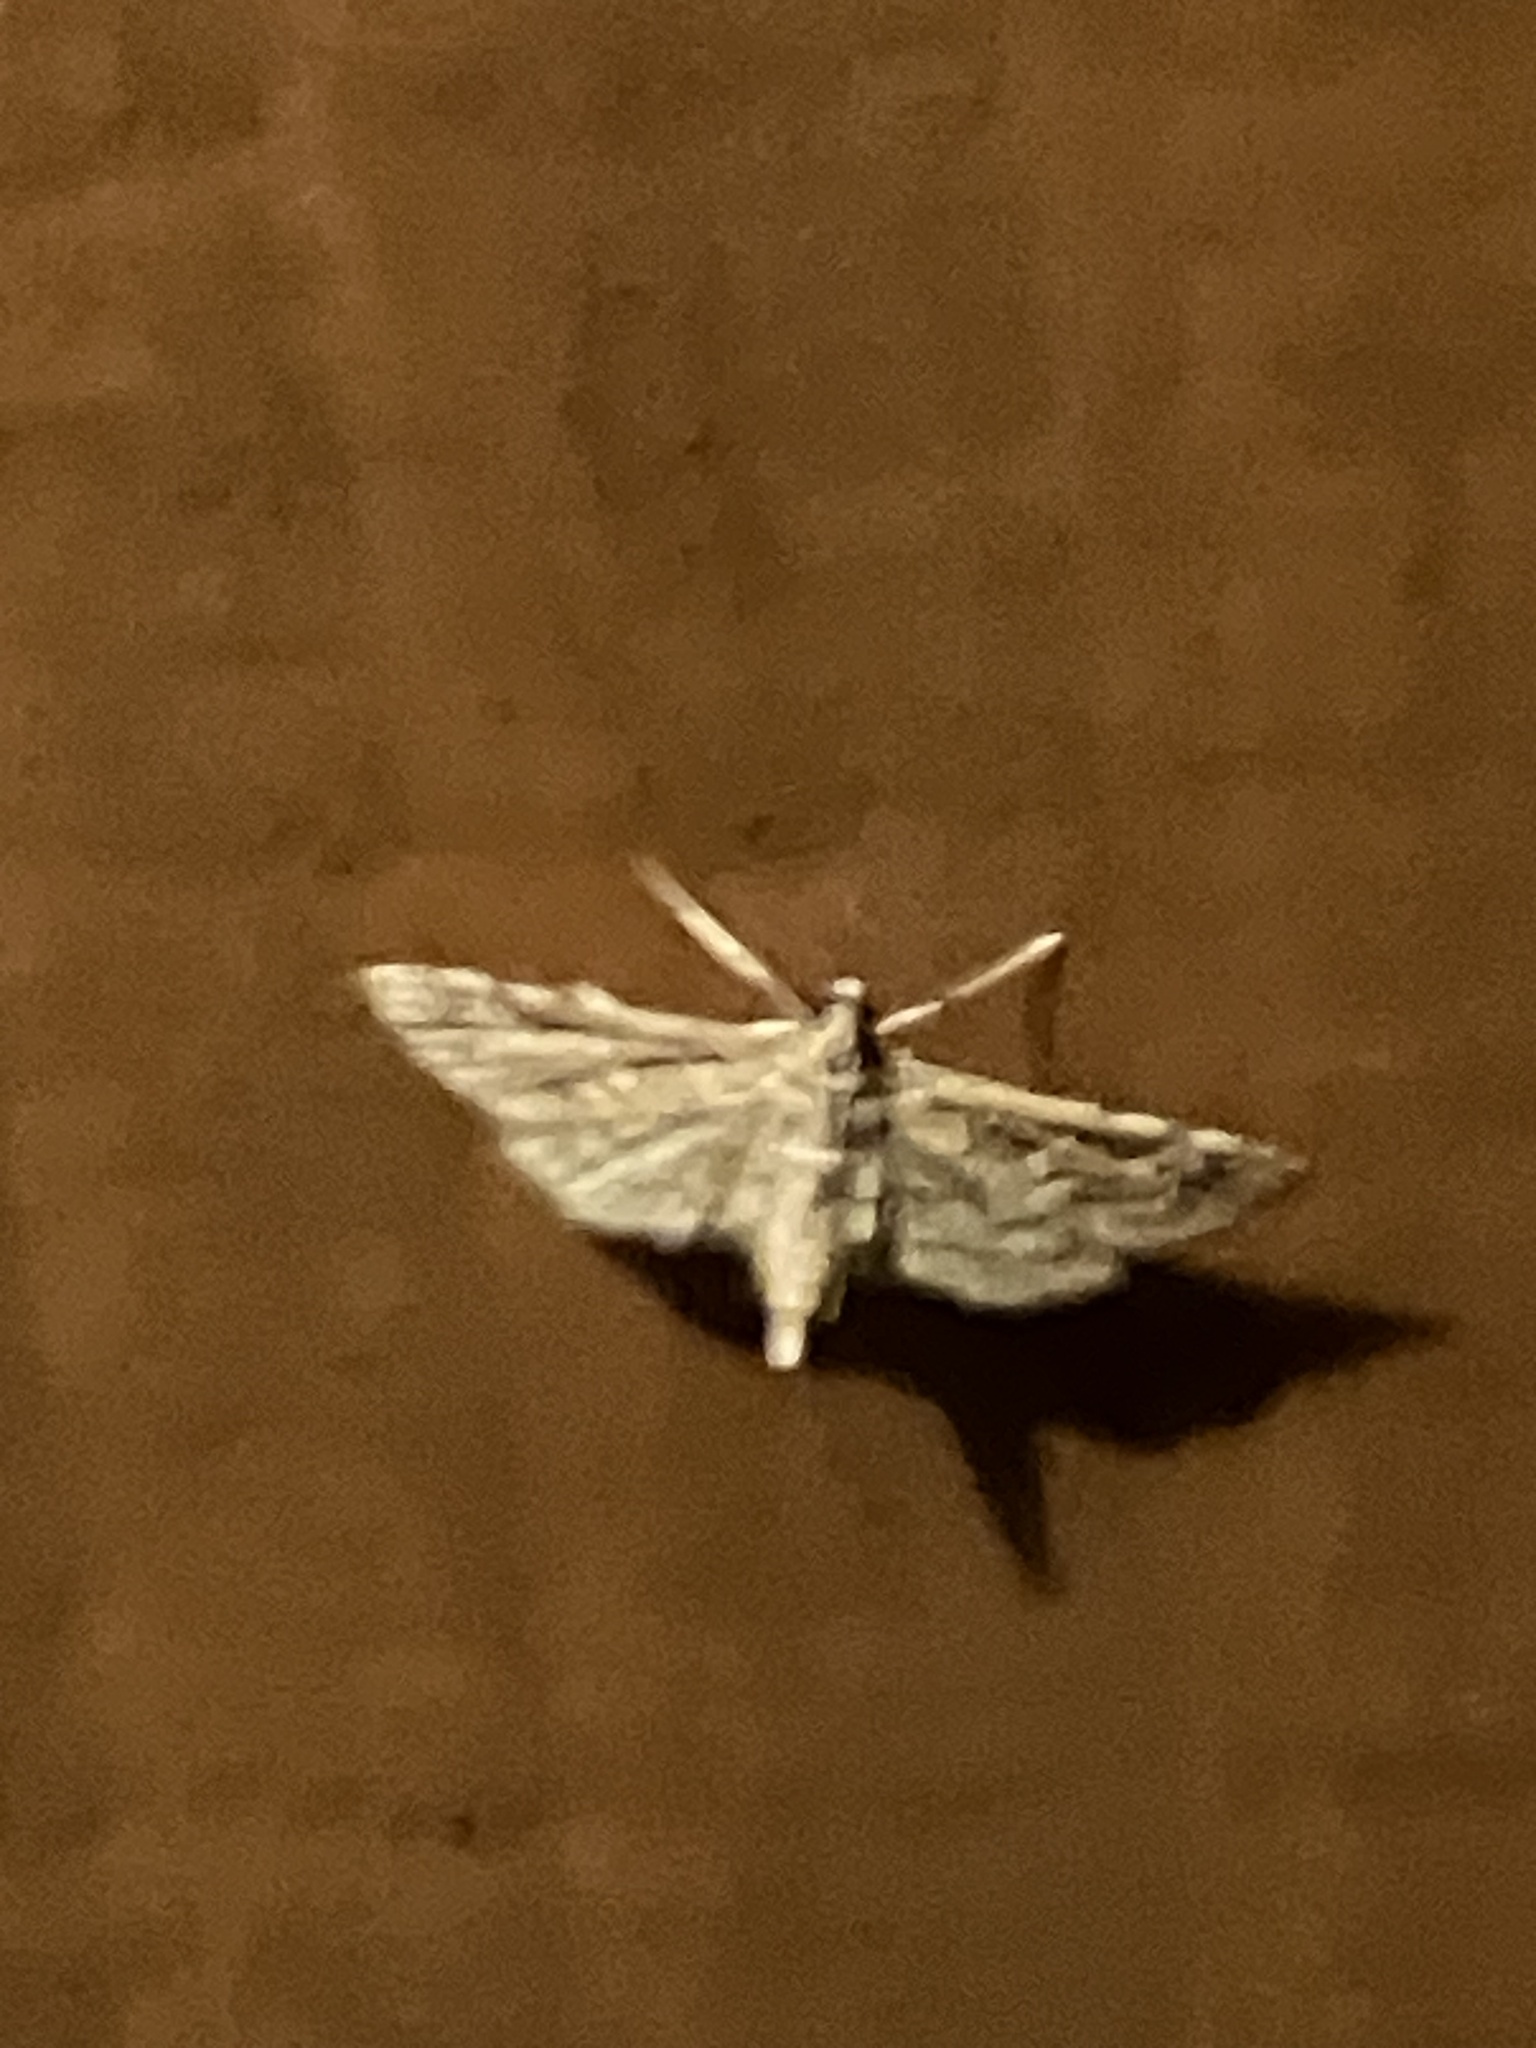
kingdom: Animalia
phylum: Arthropoda
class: Insecta
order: Lepidoptera
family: Crambidae
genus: Samea
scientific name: Samea multiplicalis
